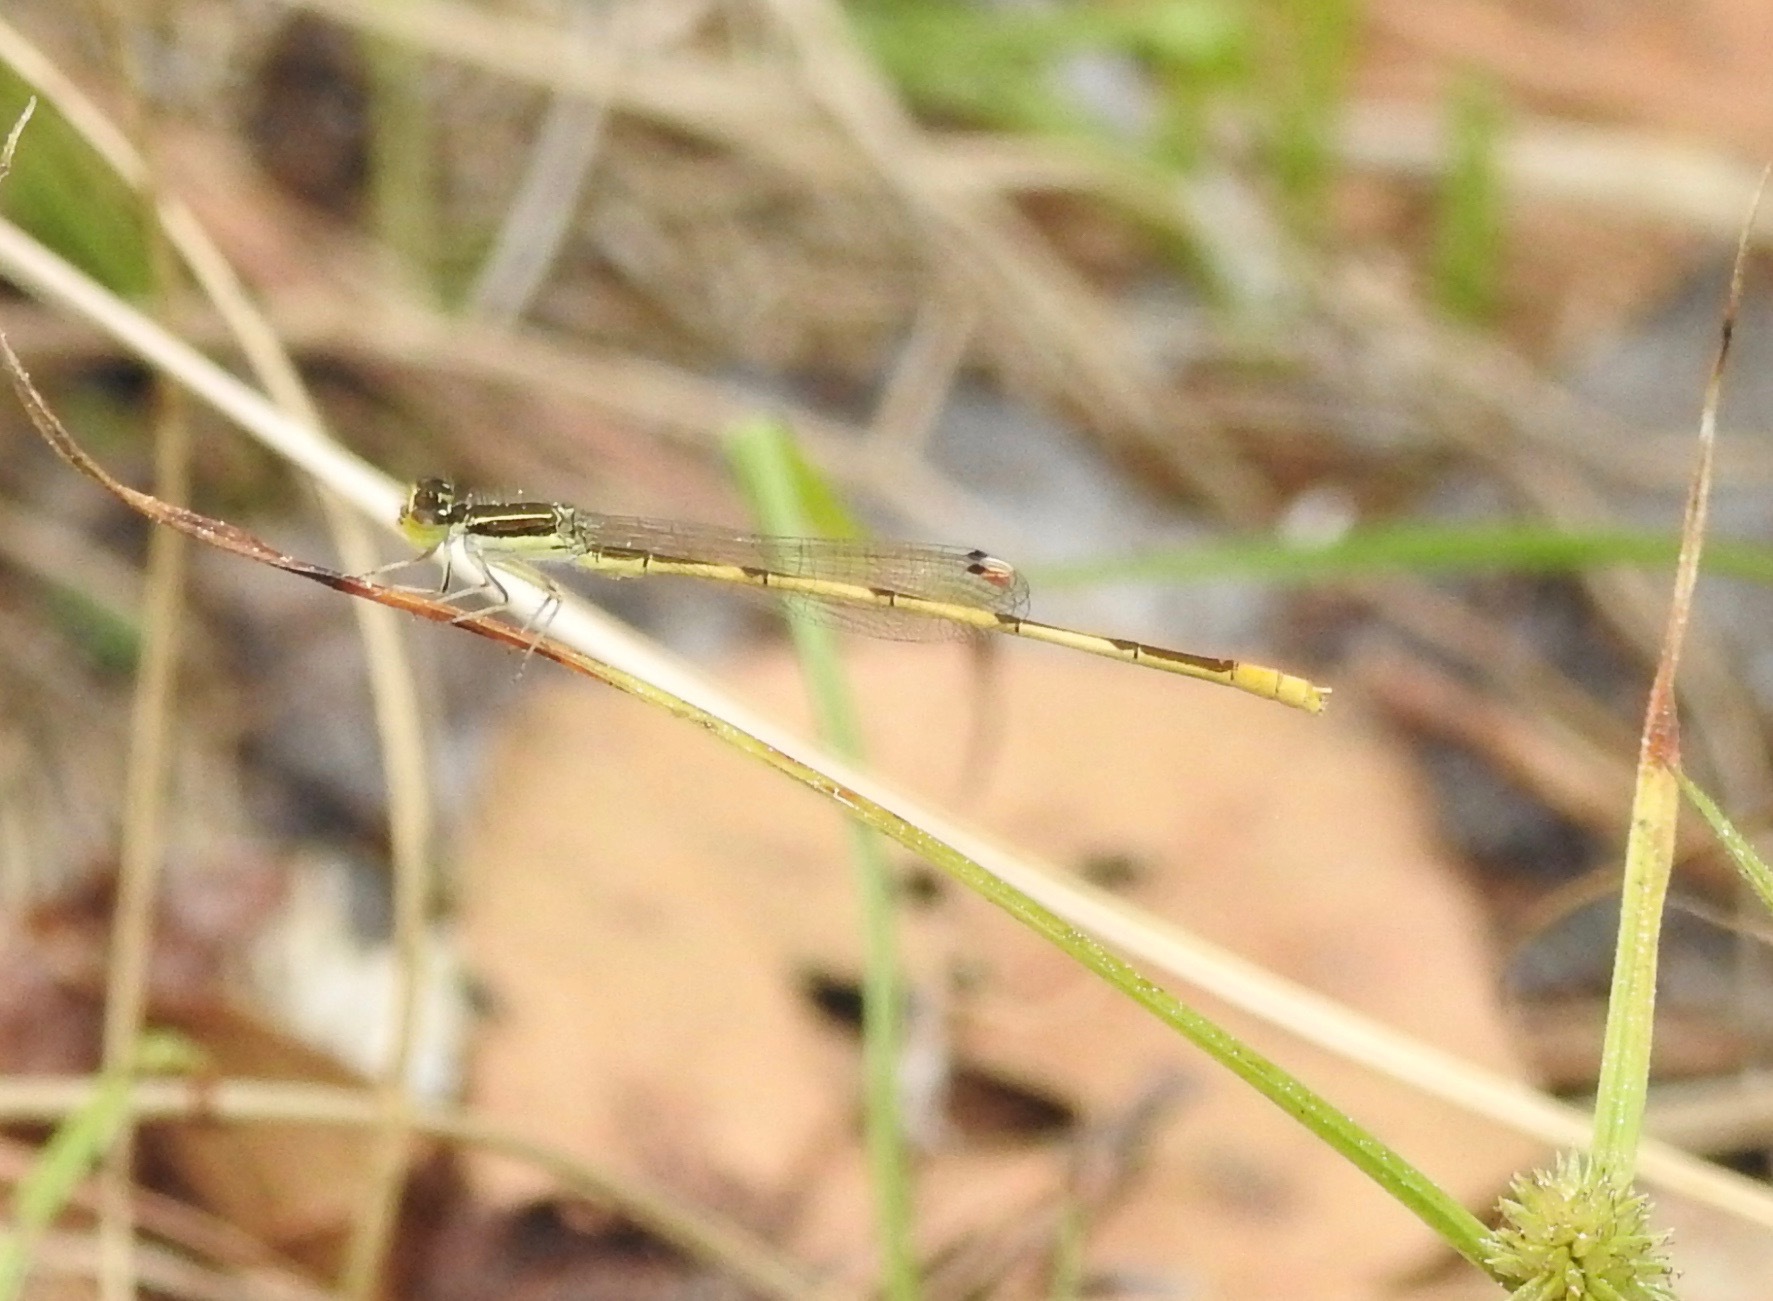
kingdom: Animalia
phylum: Arthropoda
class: Insecta
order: Odonata
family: Coenagrionidae
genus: Ischnura
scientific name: Ischnura hastata
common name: Citrine forktail
